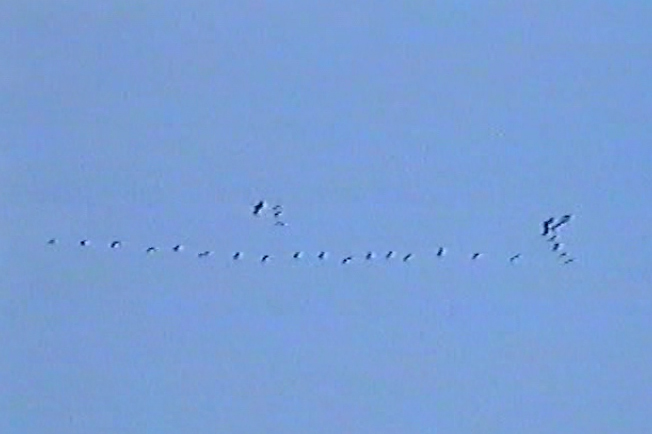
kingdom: Animalia
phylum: Chordata
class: Aves
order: Gruiformes
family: Gruidae
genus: Grus
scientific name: Grus grus
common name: Common crane
